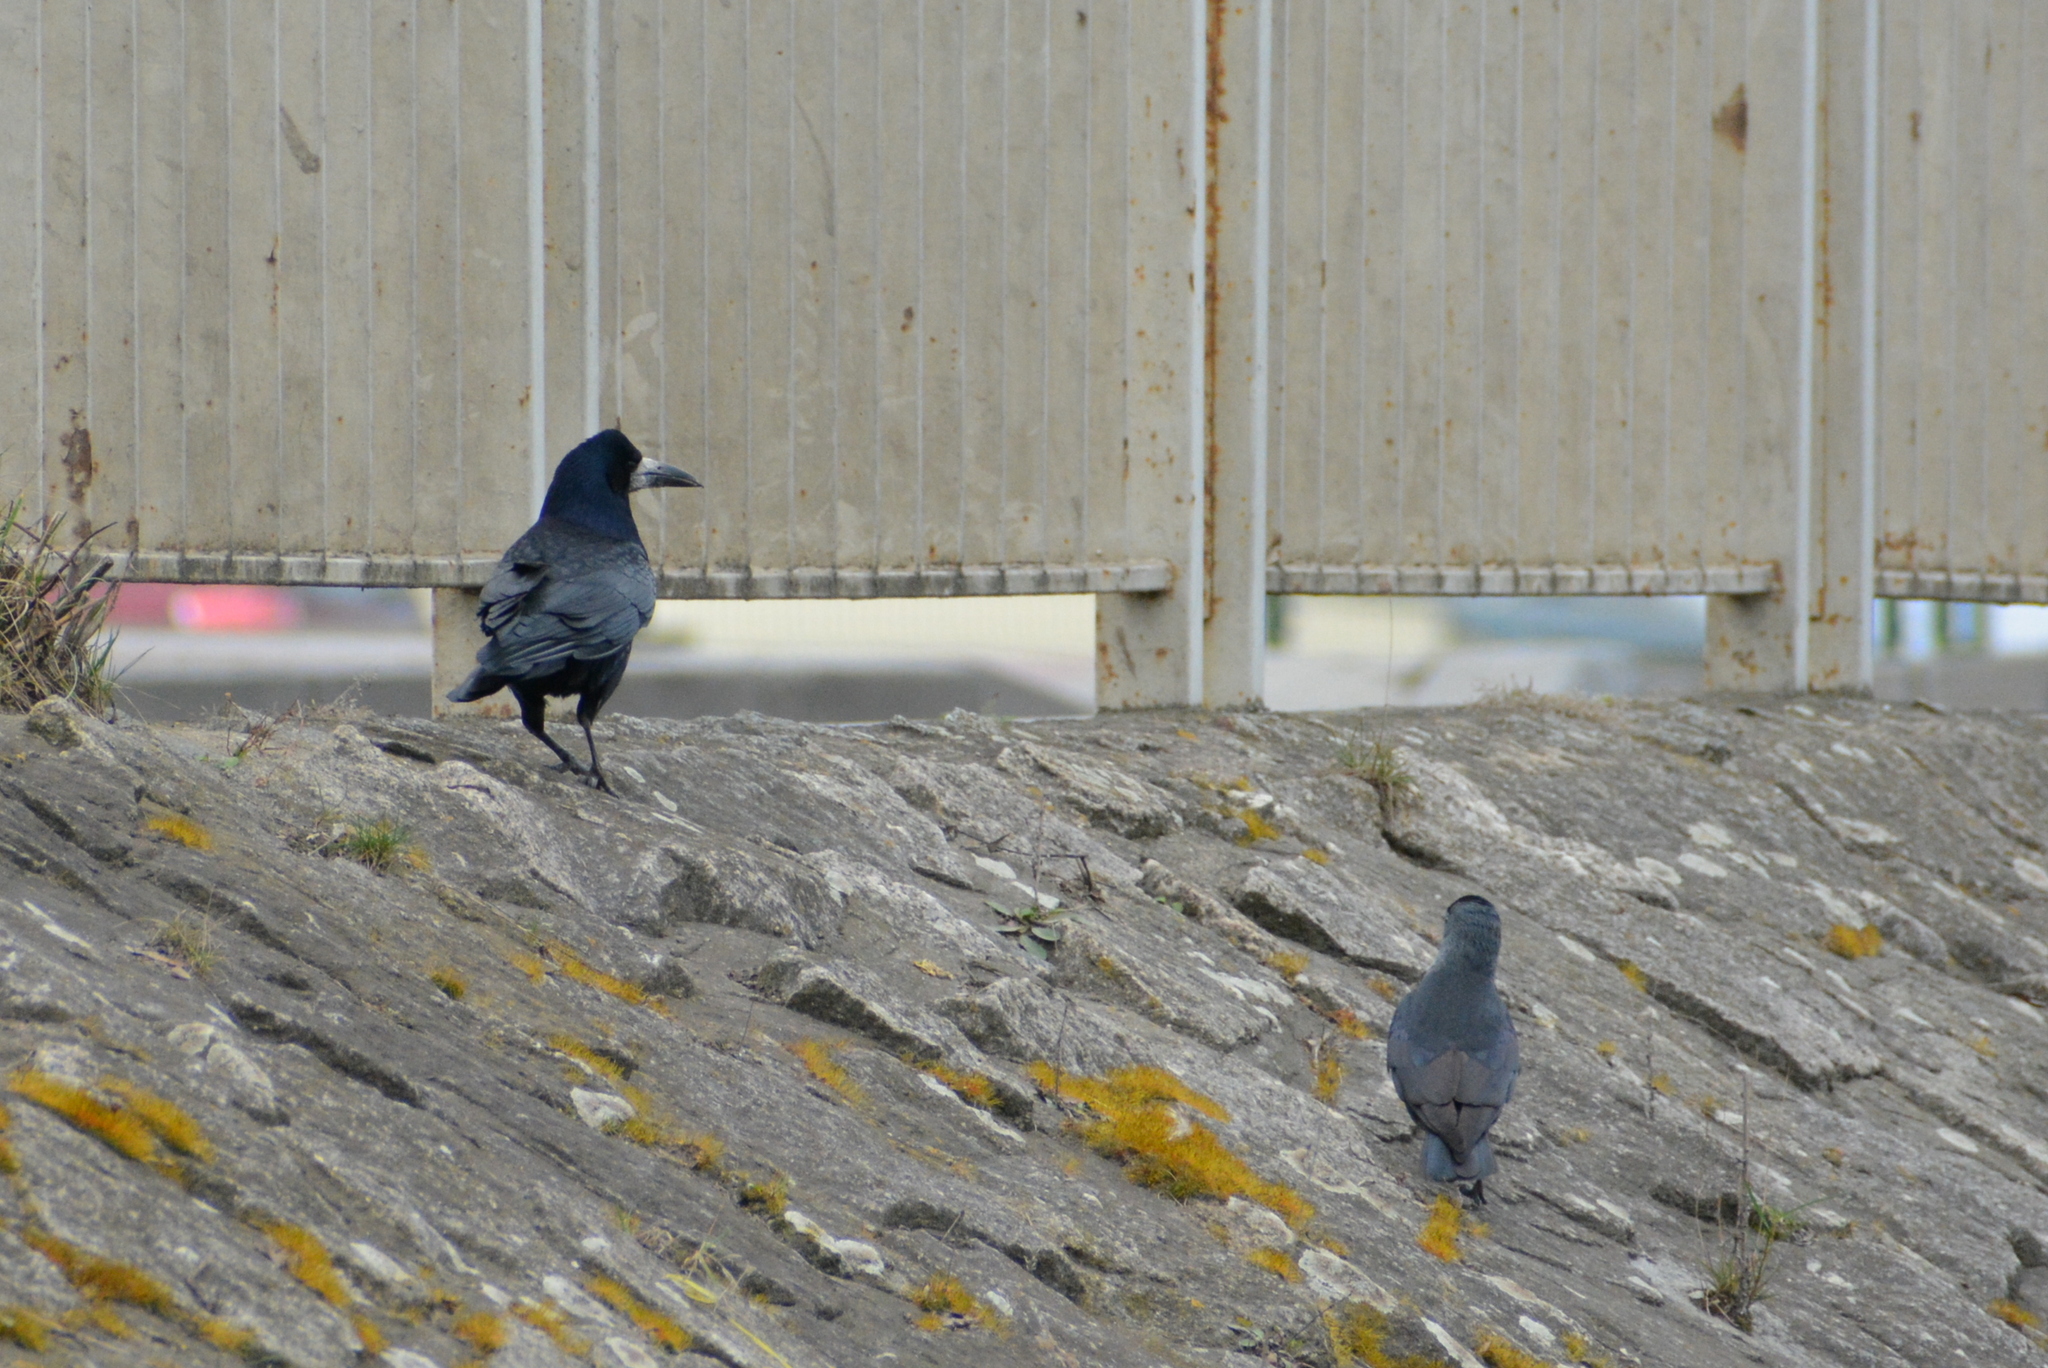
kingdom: Animalia
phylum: Chordata
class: Aves
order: Passeriformes
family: Corvidae
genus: Corvus
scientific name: Corvus frugilegus
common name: Rook
